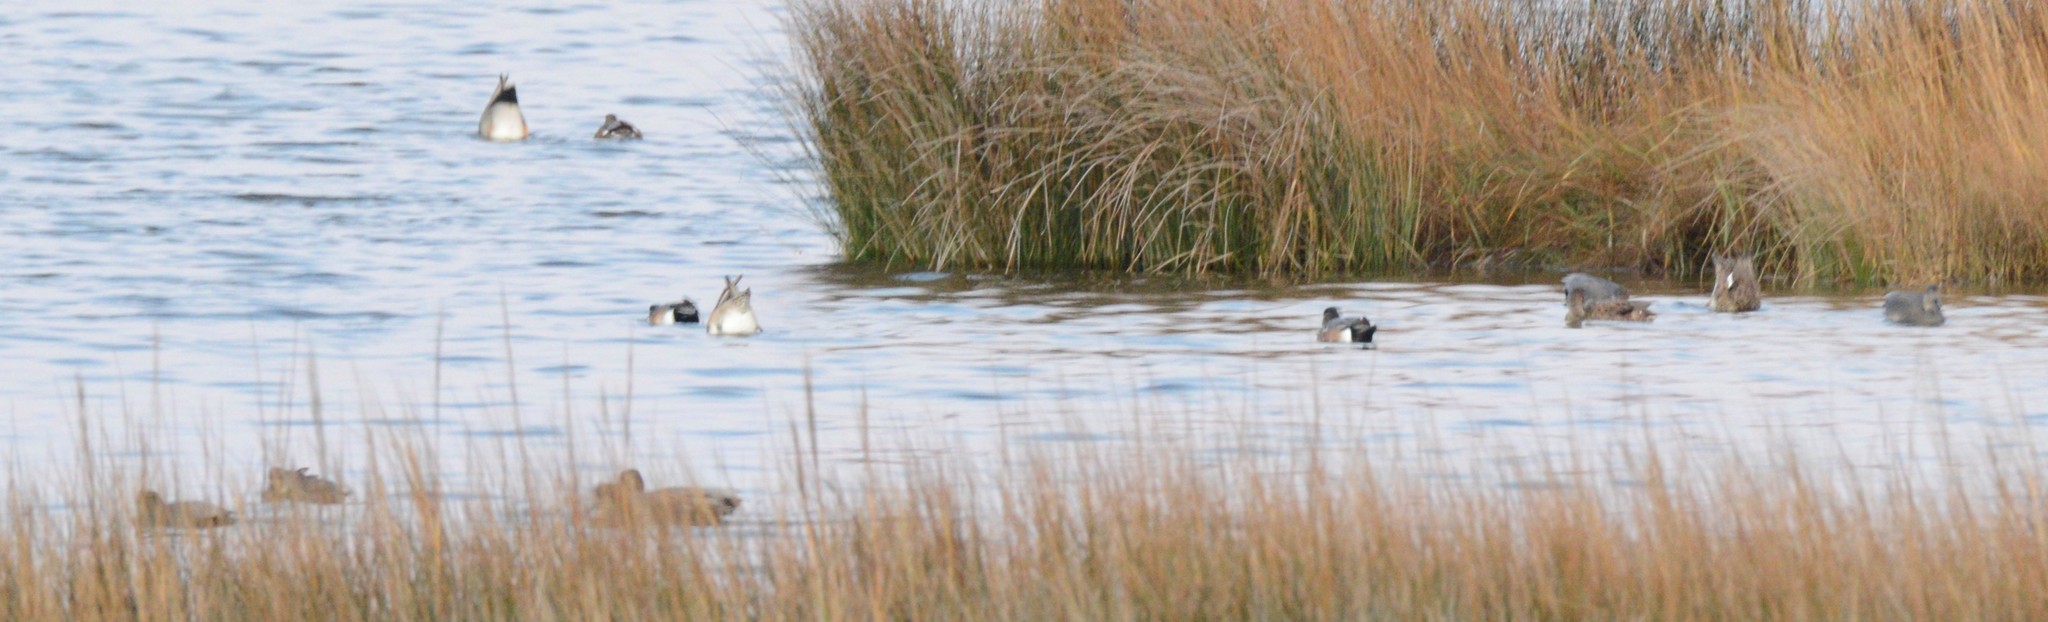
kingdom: Animalia
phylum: Chordata
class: Aves
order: Anseriformes
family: Anatidae
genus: Mareca
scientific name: Mareca strepera
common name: Gadwall
